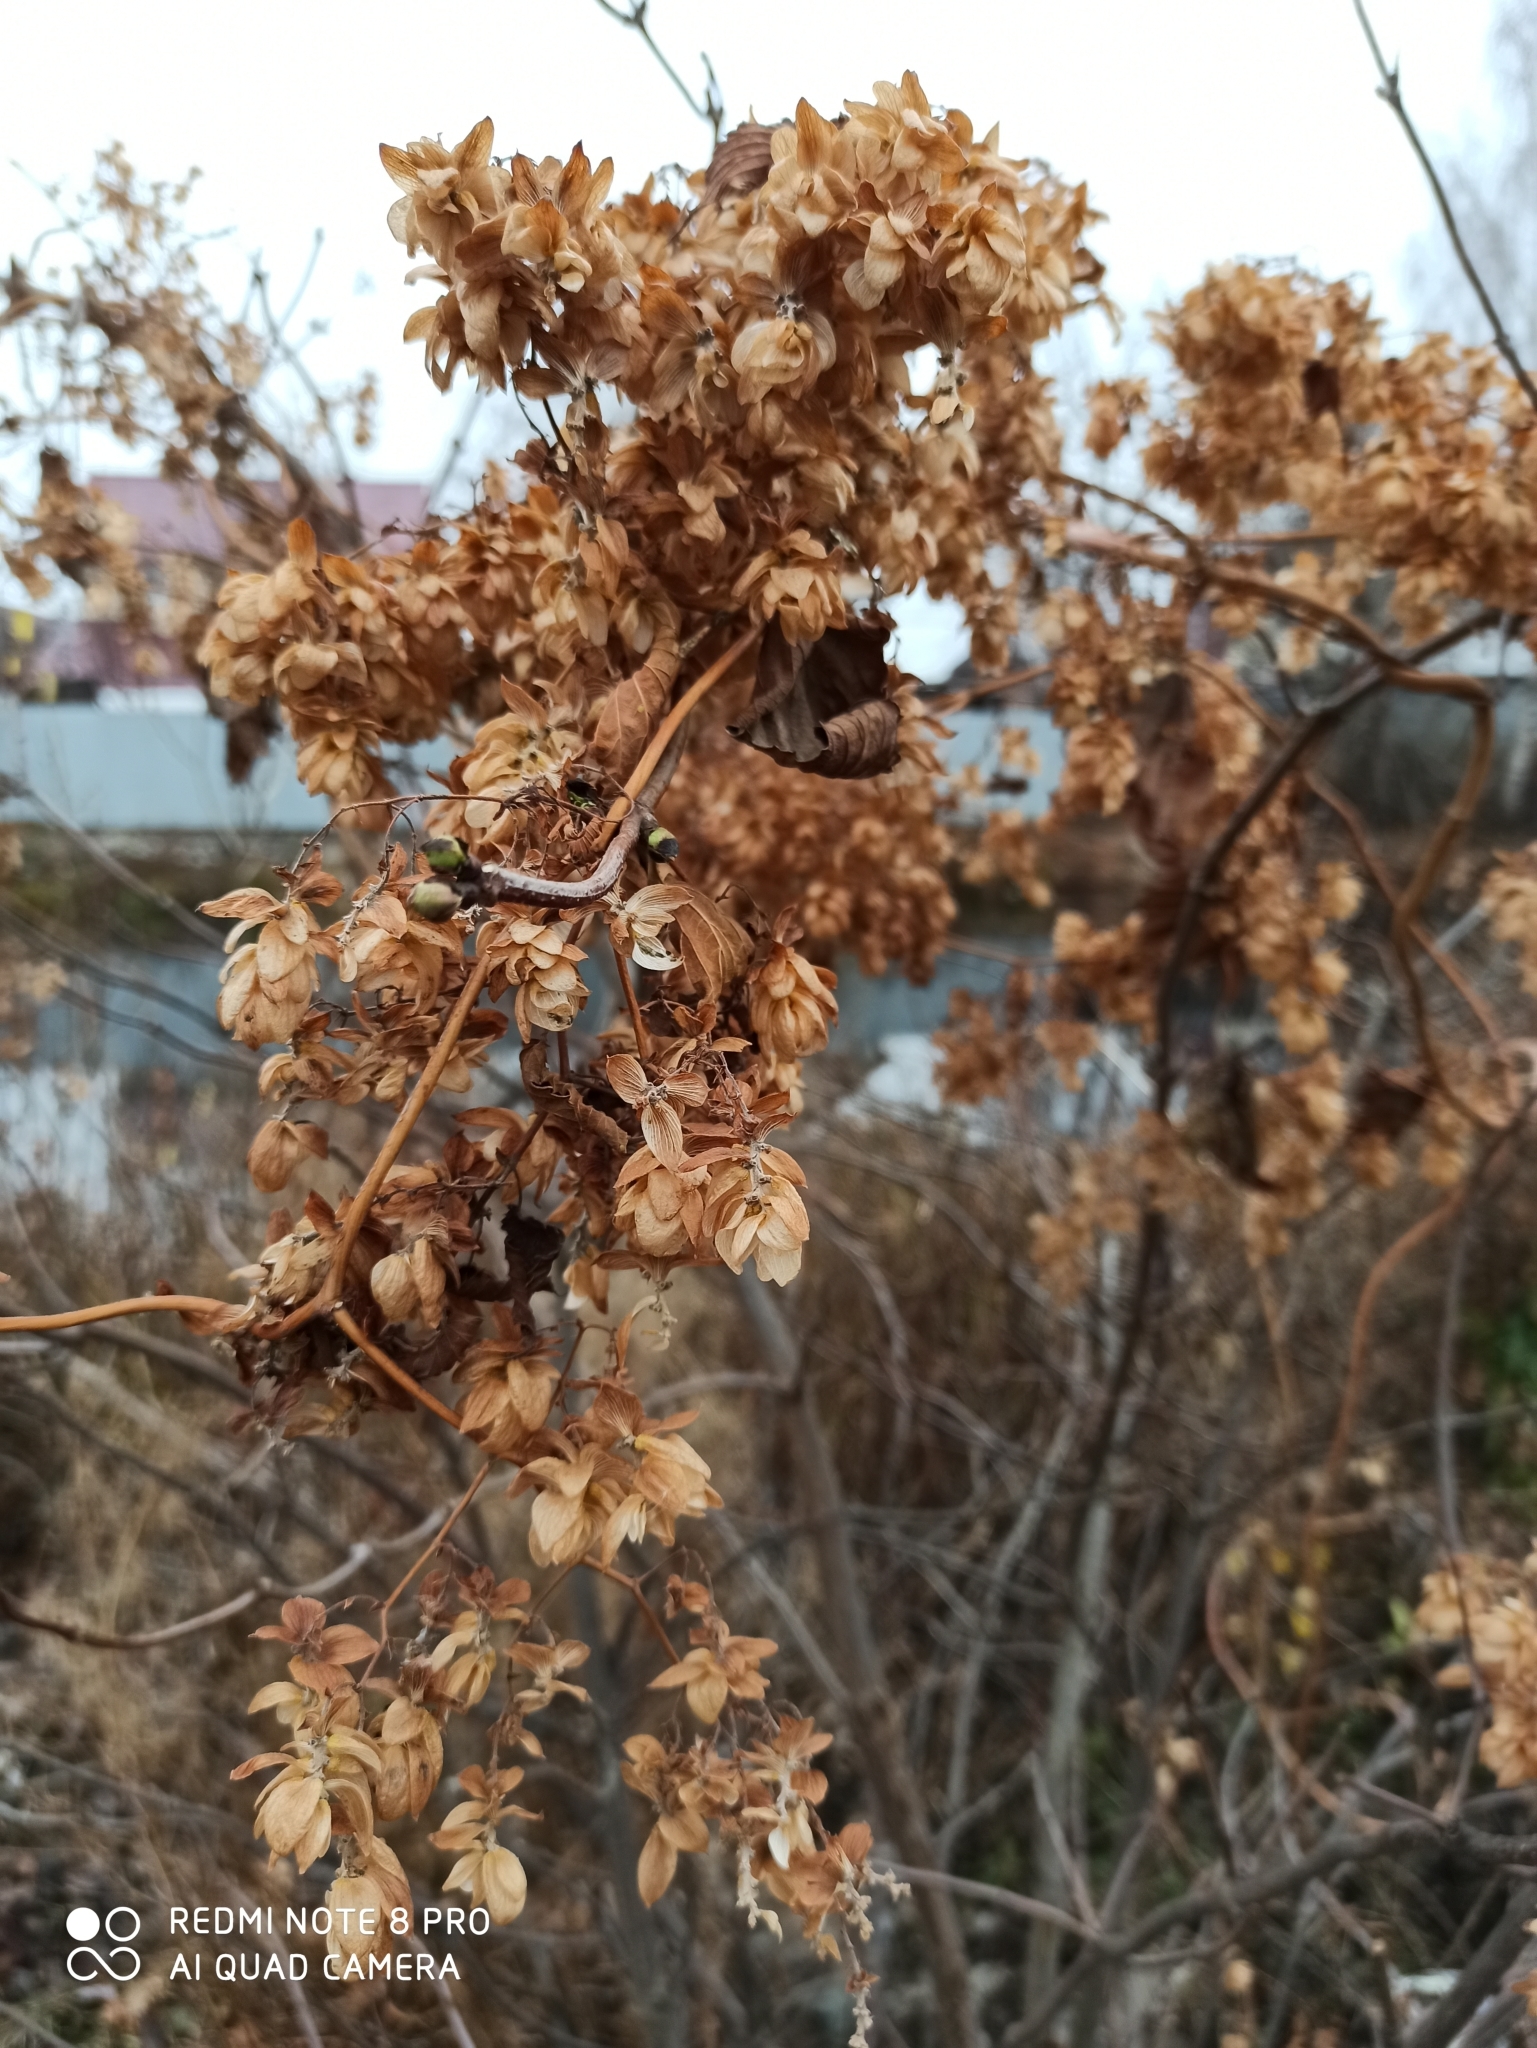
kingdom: Plantae
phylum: Tracheophyta
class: Magnoliopsida
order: Rosales
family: Cannabaceae
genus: Humulus
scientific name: Humulus lupulus
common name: Hop
